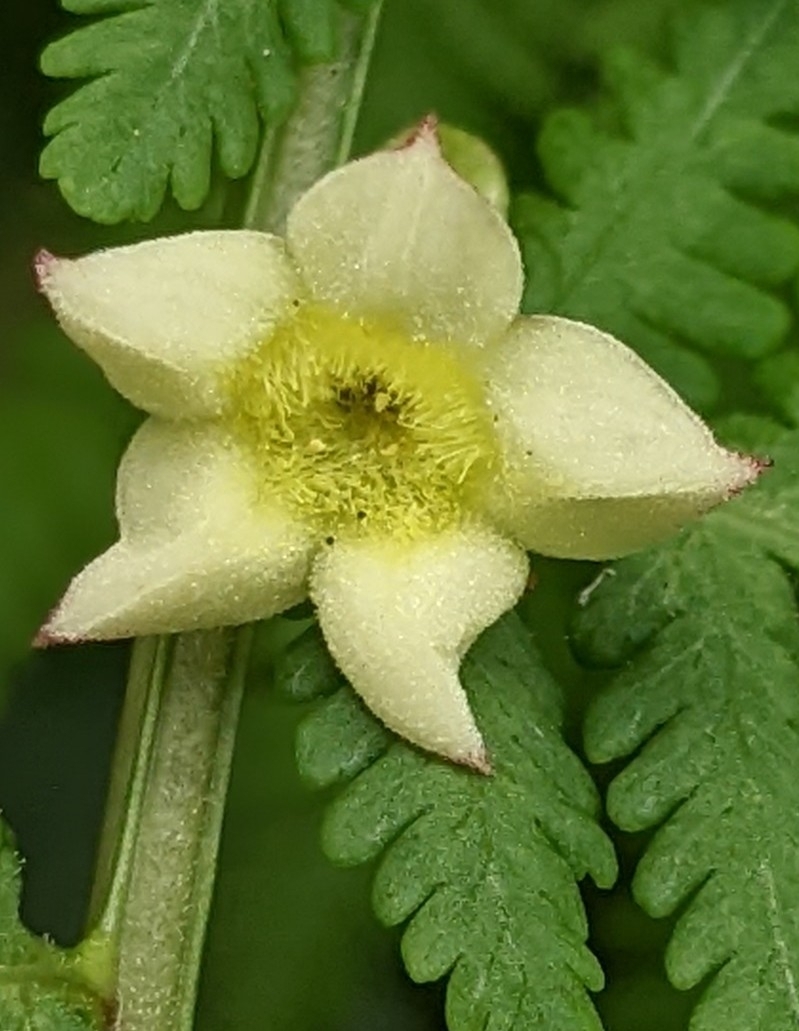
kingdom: Plantae
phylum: Tracheophyta
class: Magnoliopsida
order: Gentianales
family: Rubiaceae
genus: Mussaenda
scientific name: Mussaenda parviflora
